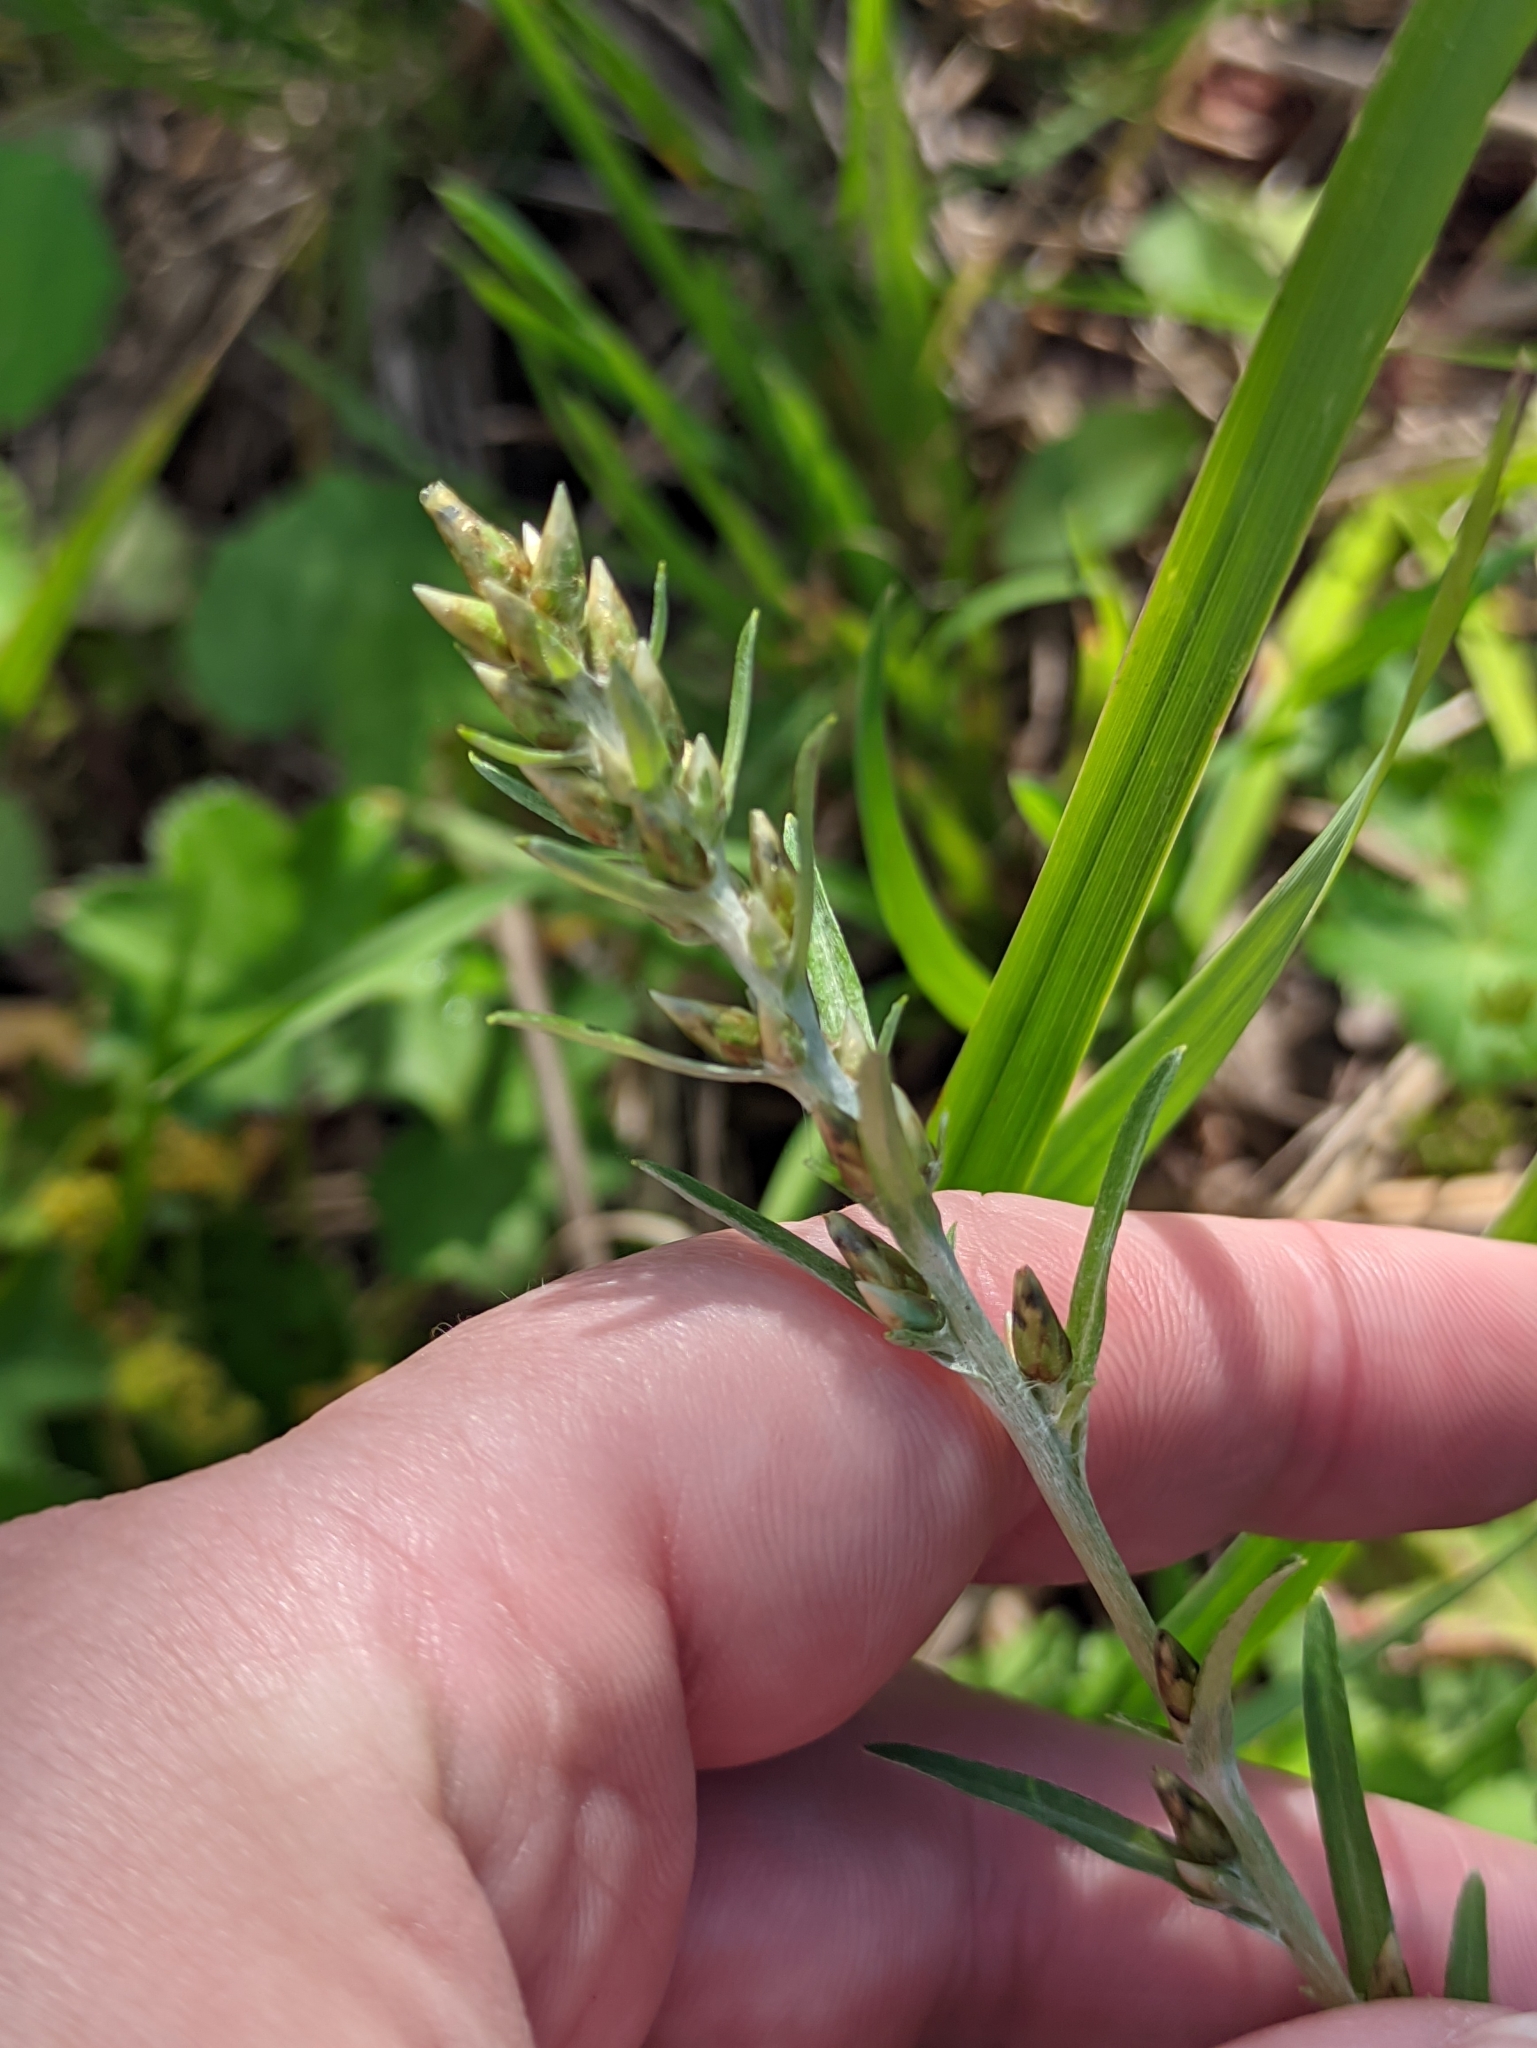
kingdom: Plantae
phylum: Tracheophyta
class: Magnoliopsida
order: Asterales
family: Asteraceae
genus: Omalotheca
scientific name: Omalotheca sylvatica
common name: Heath cudweed
